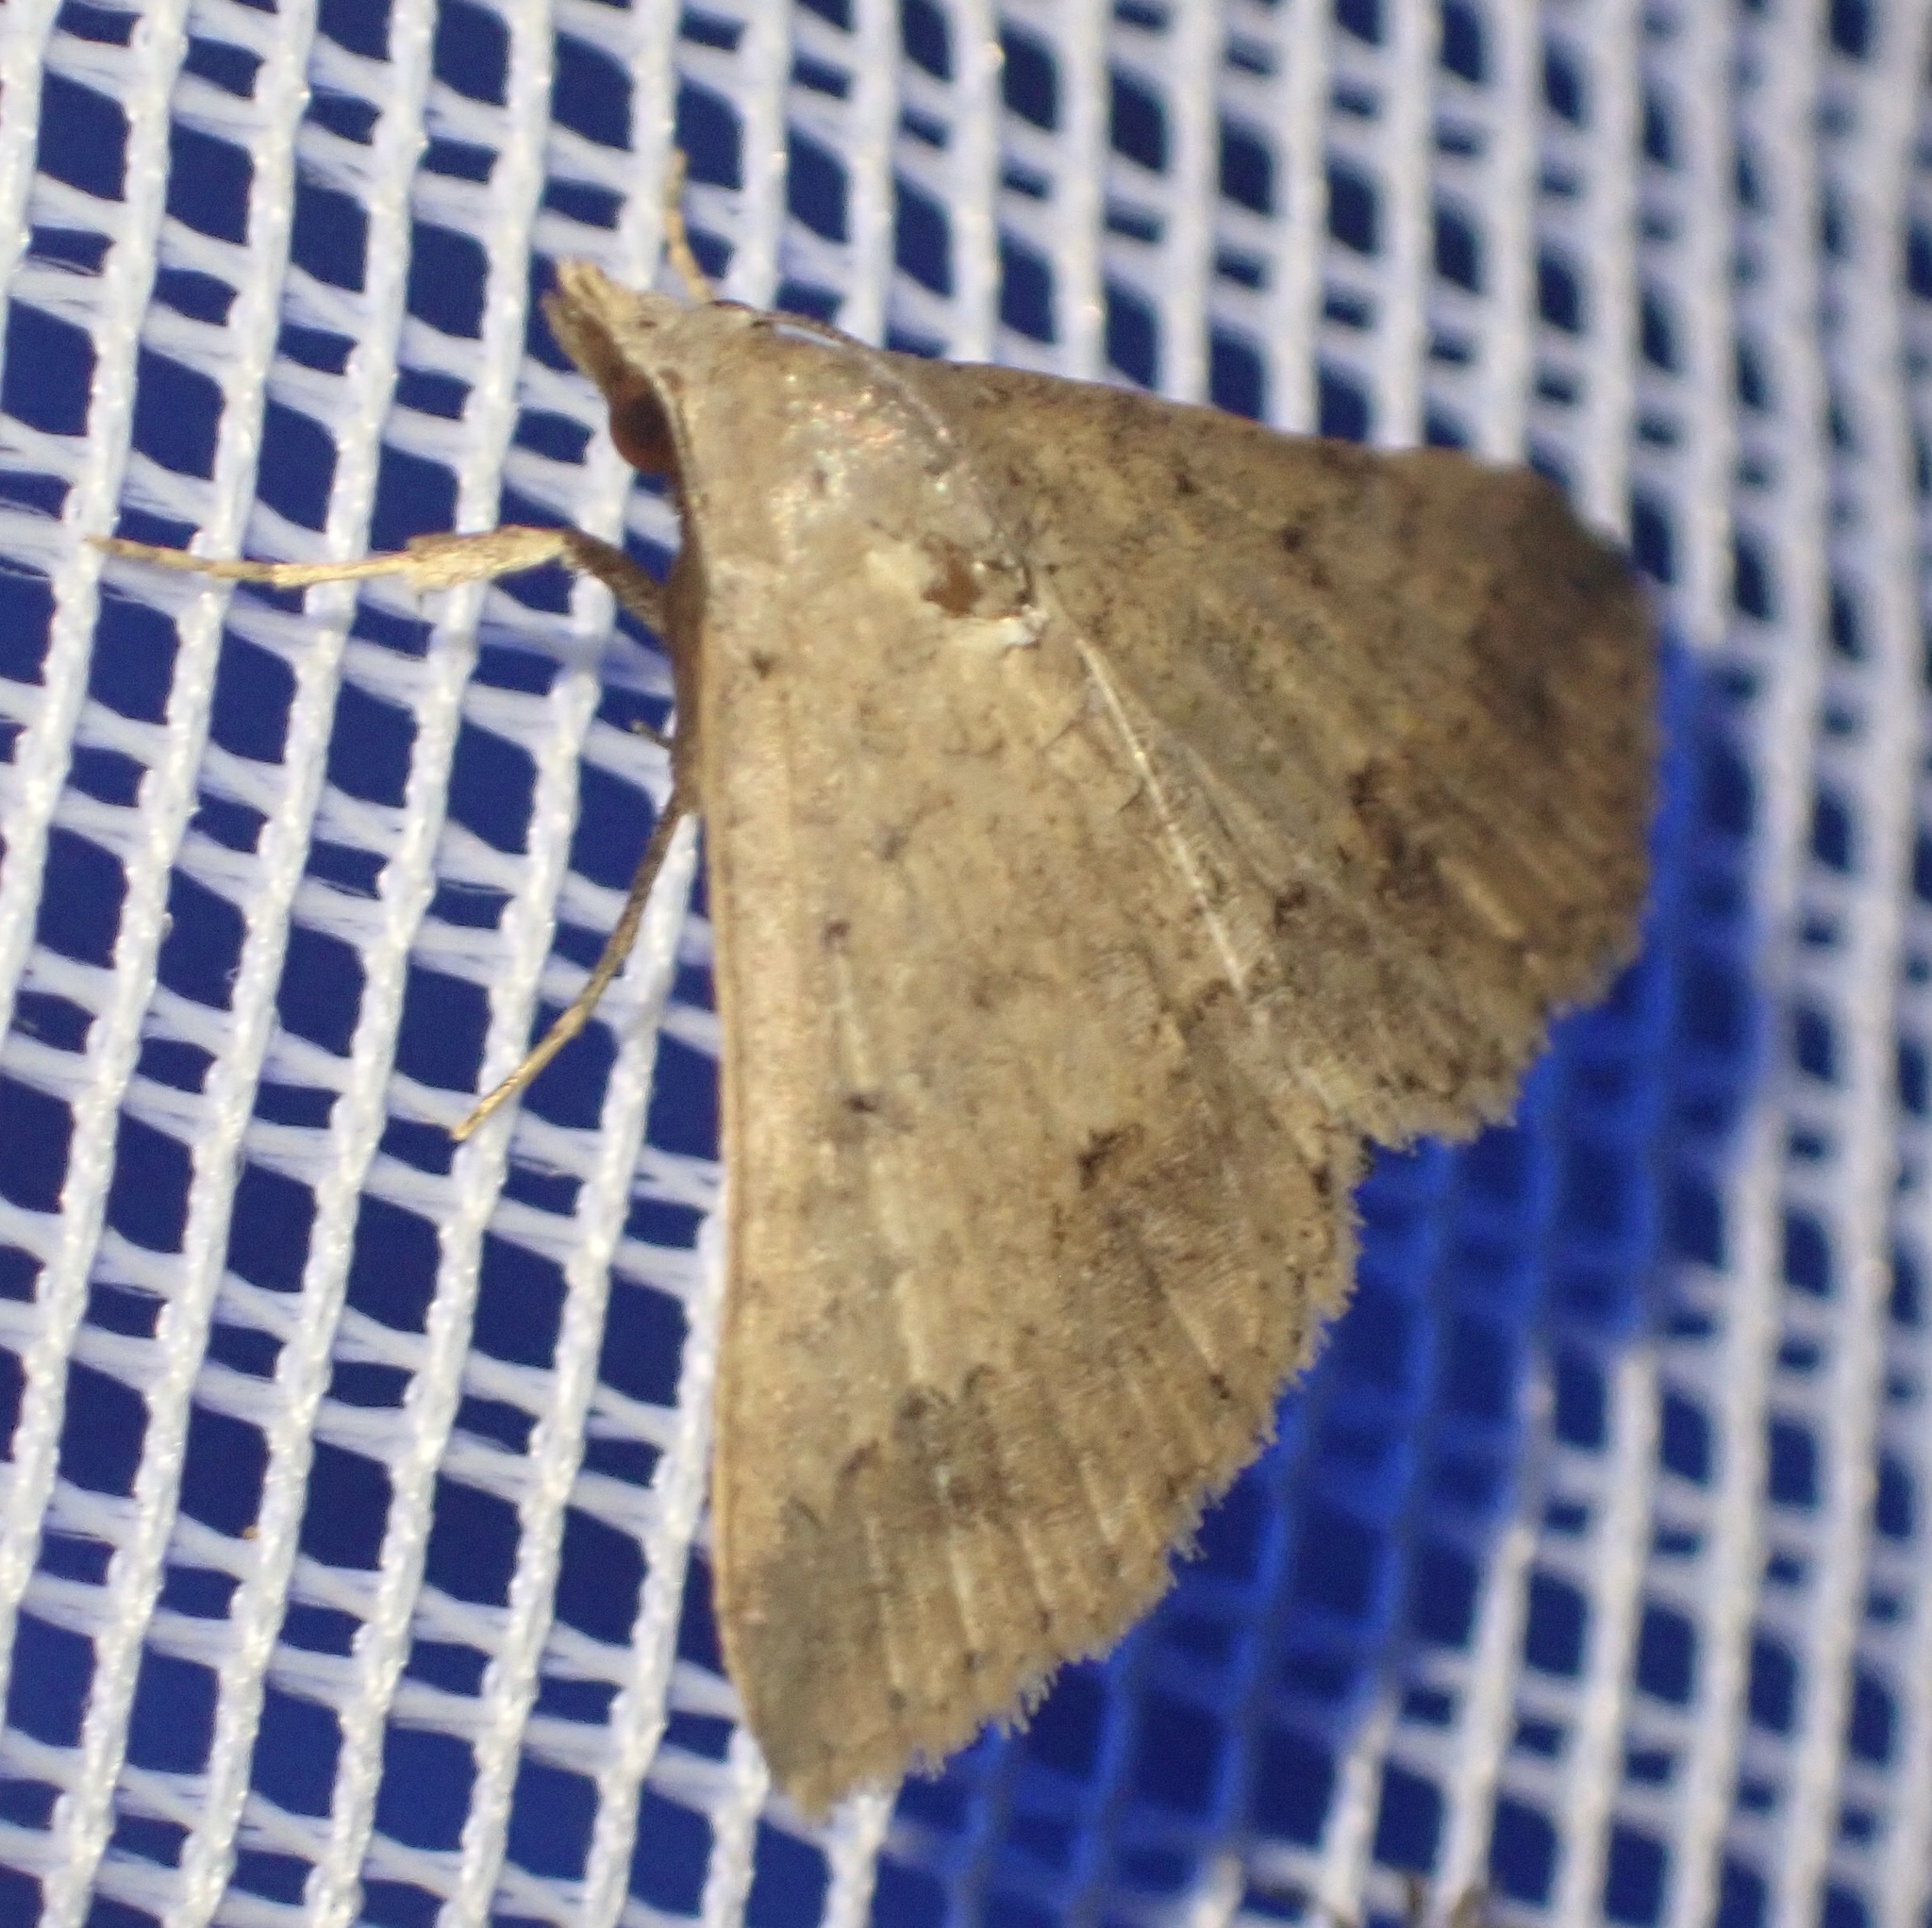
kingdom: Animalia
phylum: Arthropoda
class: Insecta
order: Lepidoptera
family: Erebidae
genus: Gesonia
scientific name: Gesonia obeditalis
